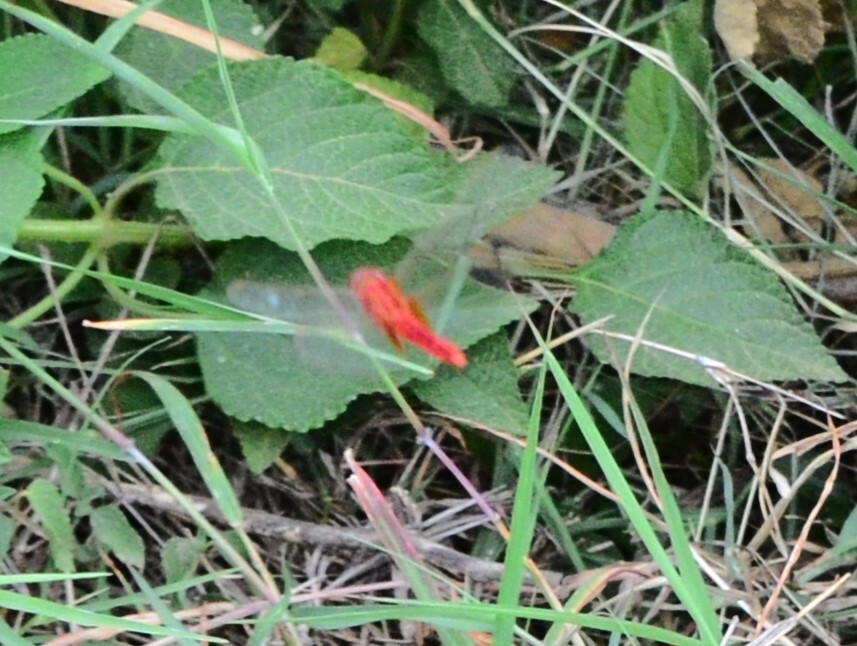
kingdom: Animalia
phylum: Arthropoda
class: Insecta
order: Odonata
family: Libellulidae
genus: Crocothemis
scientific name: Crocothemis servilia
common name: Scarlet skimmer
